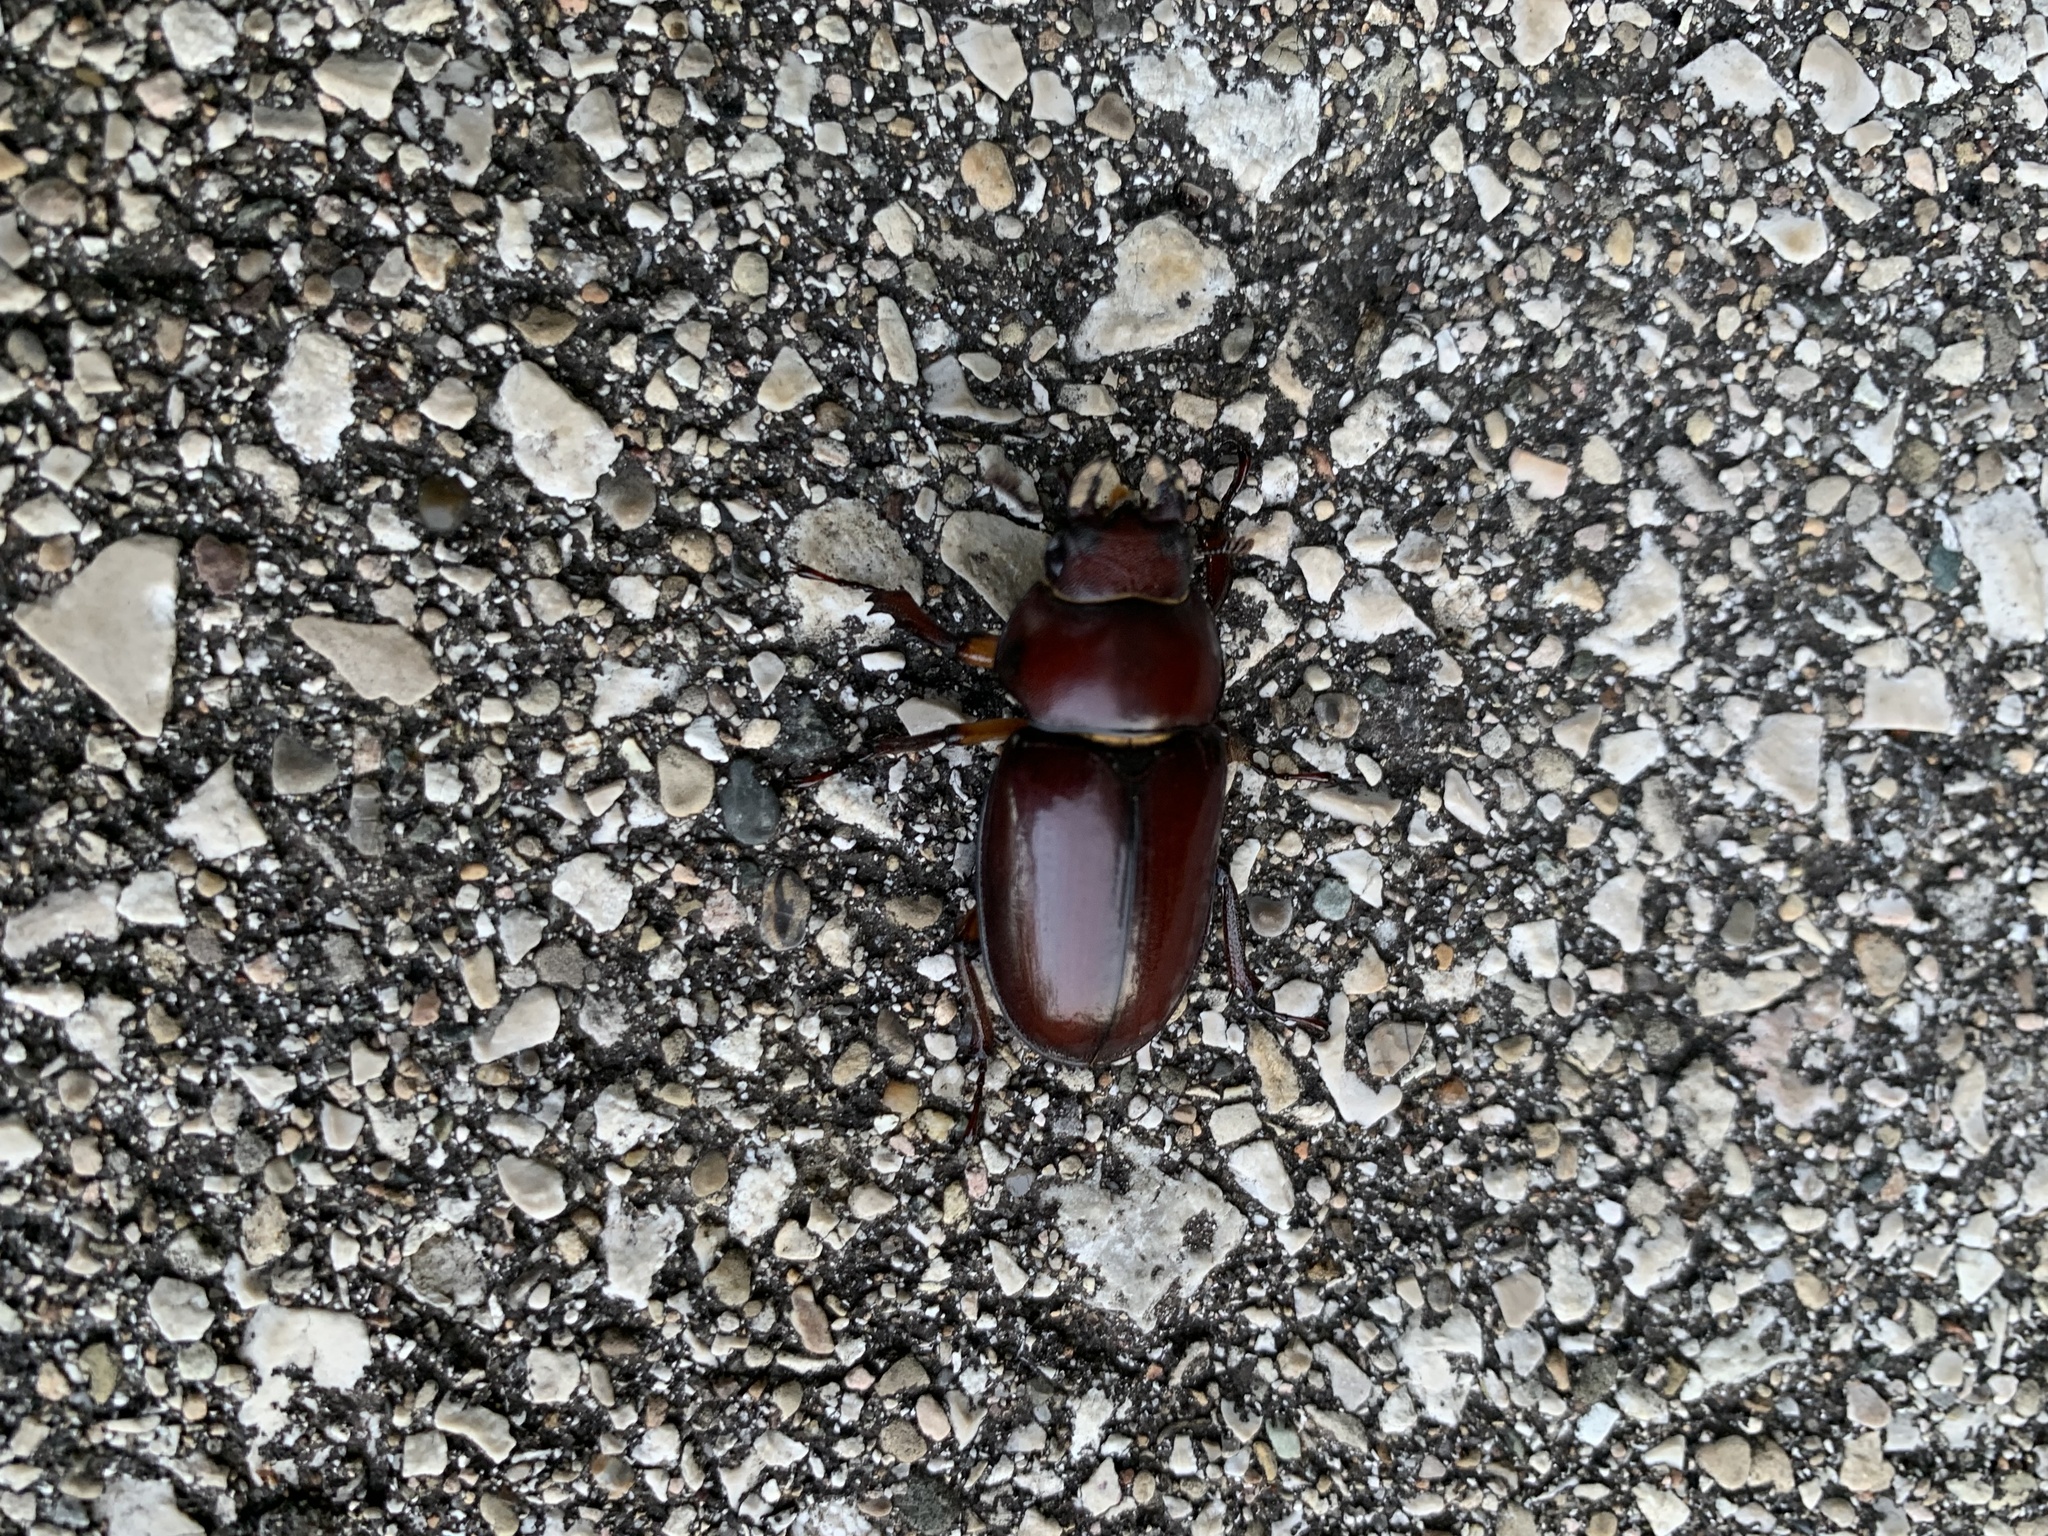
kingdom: Animalia
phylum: Arthropoda
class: Insecta
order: Coleoptera
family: Lucanidae
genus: Lucanus
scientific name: Lucanus capreolus
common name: Stag beetle
